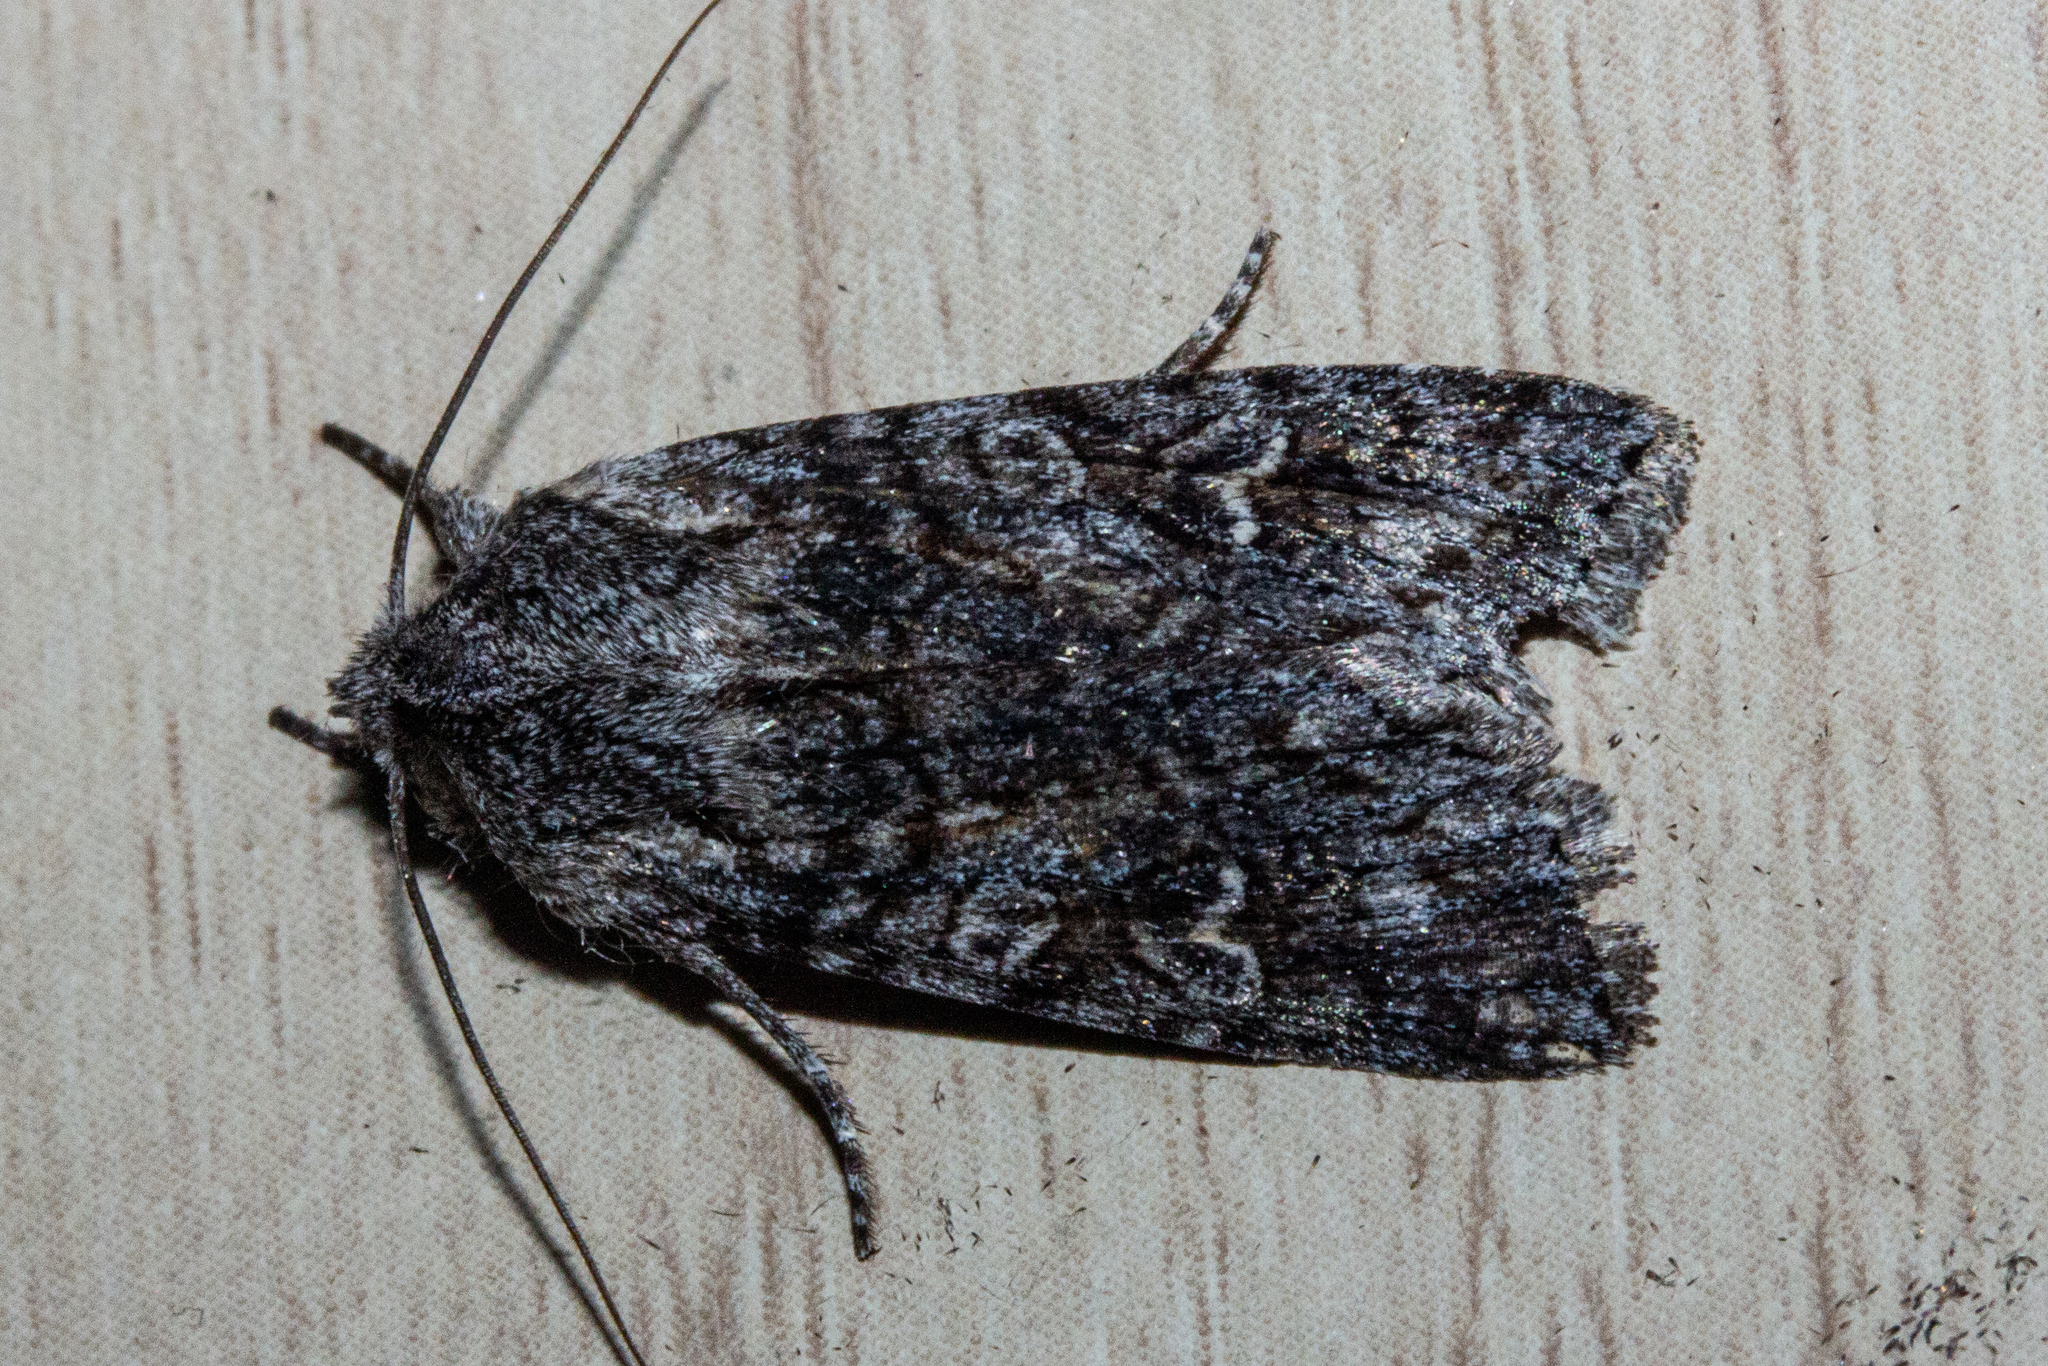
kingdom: Animalia
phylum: Arthropoda
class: Insecta
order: Lepidoptera
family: Noctuidae
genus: Physetica
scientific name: Physetica longstaffii
